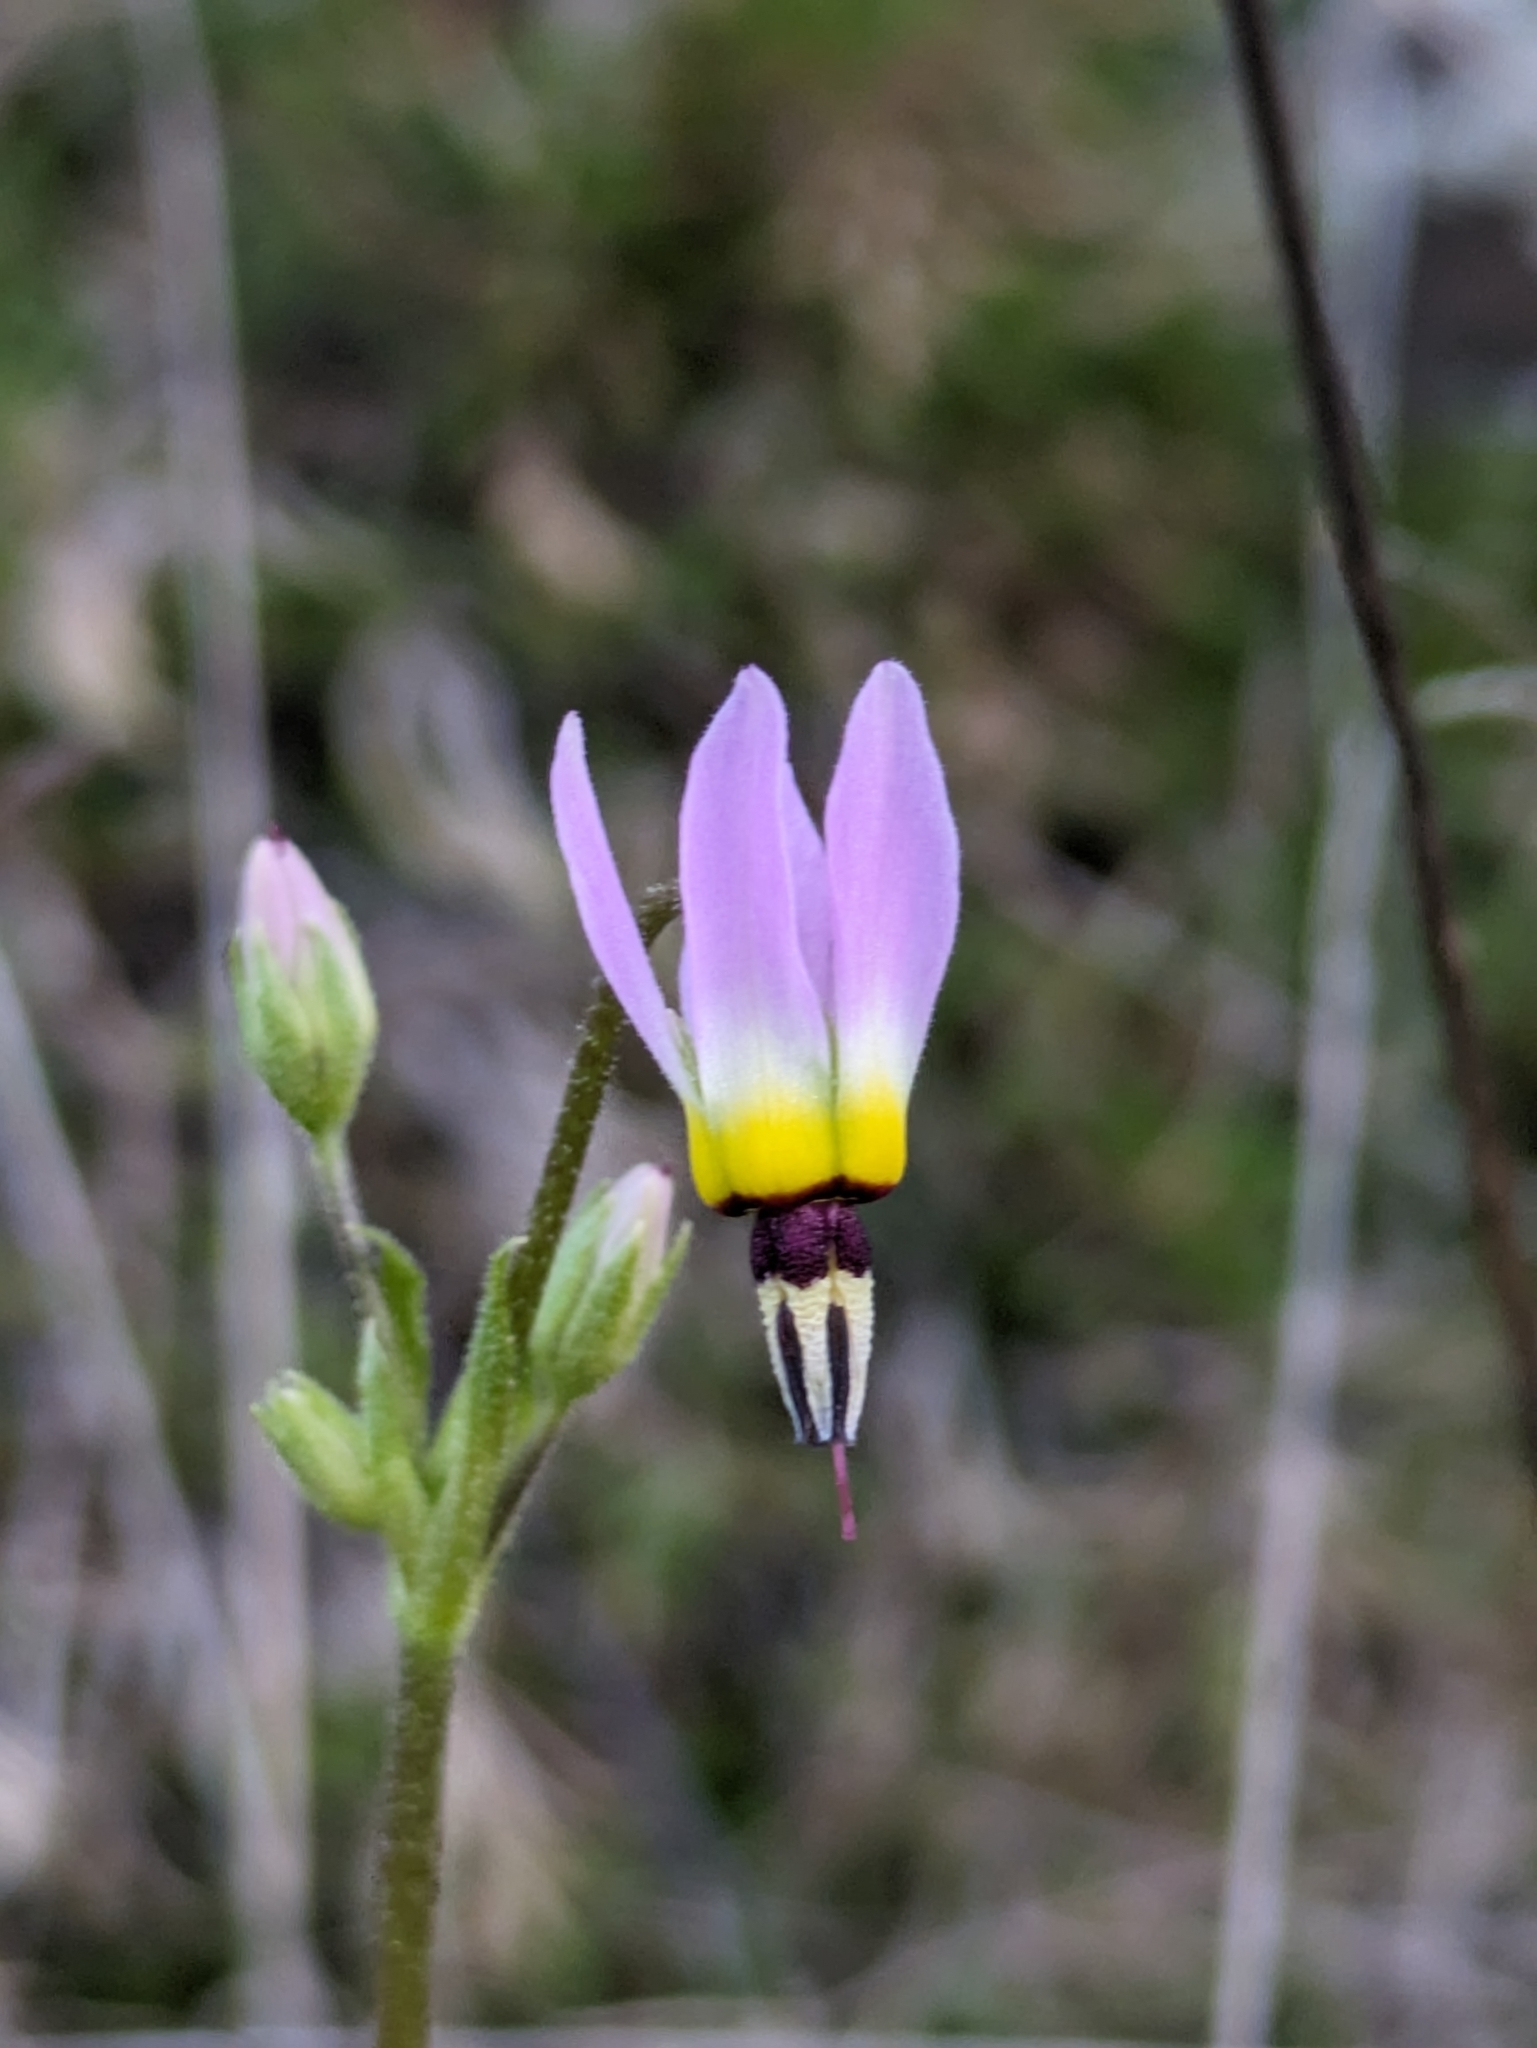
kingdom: Plantae
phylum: Tracheophyta
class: Magnoliopsida
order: Ericales
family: Primulaceae
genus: Dodecatheon
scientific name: Dodecatheon clevelandii
